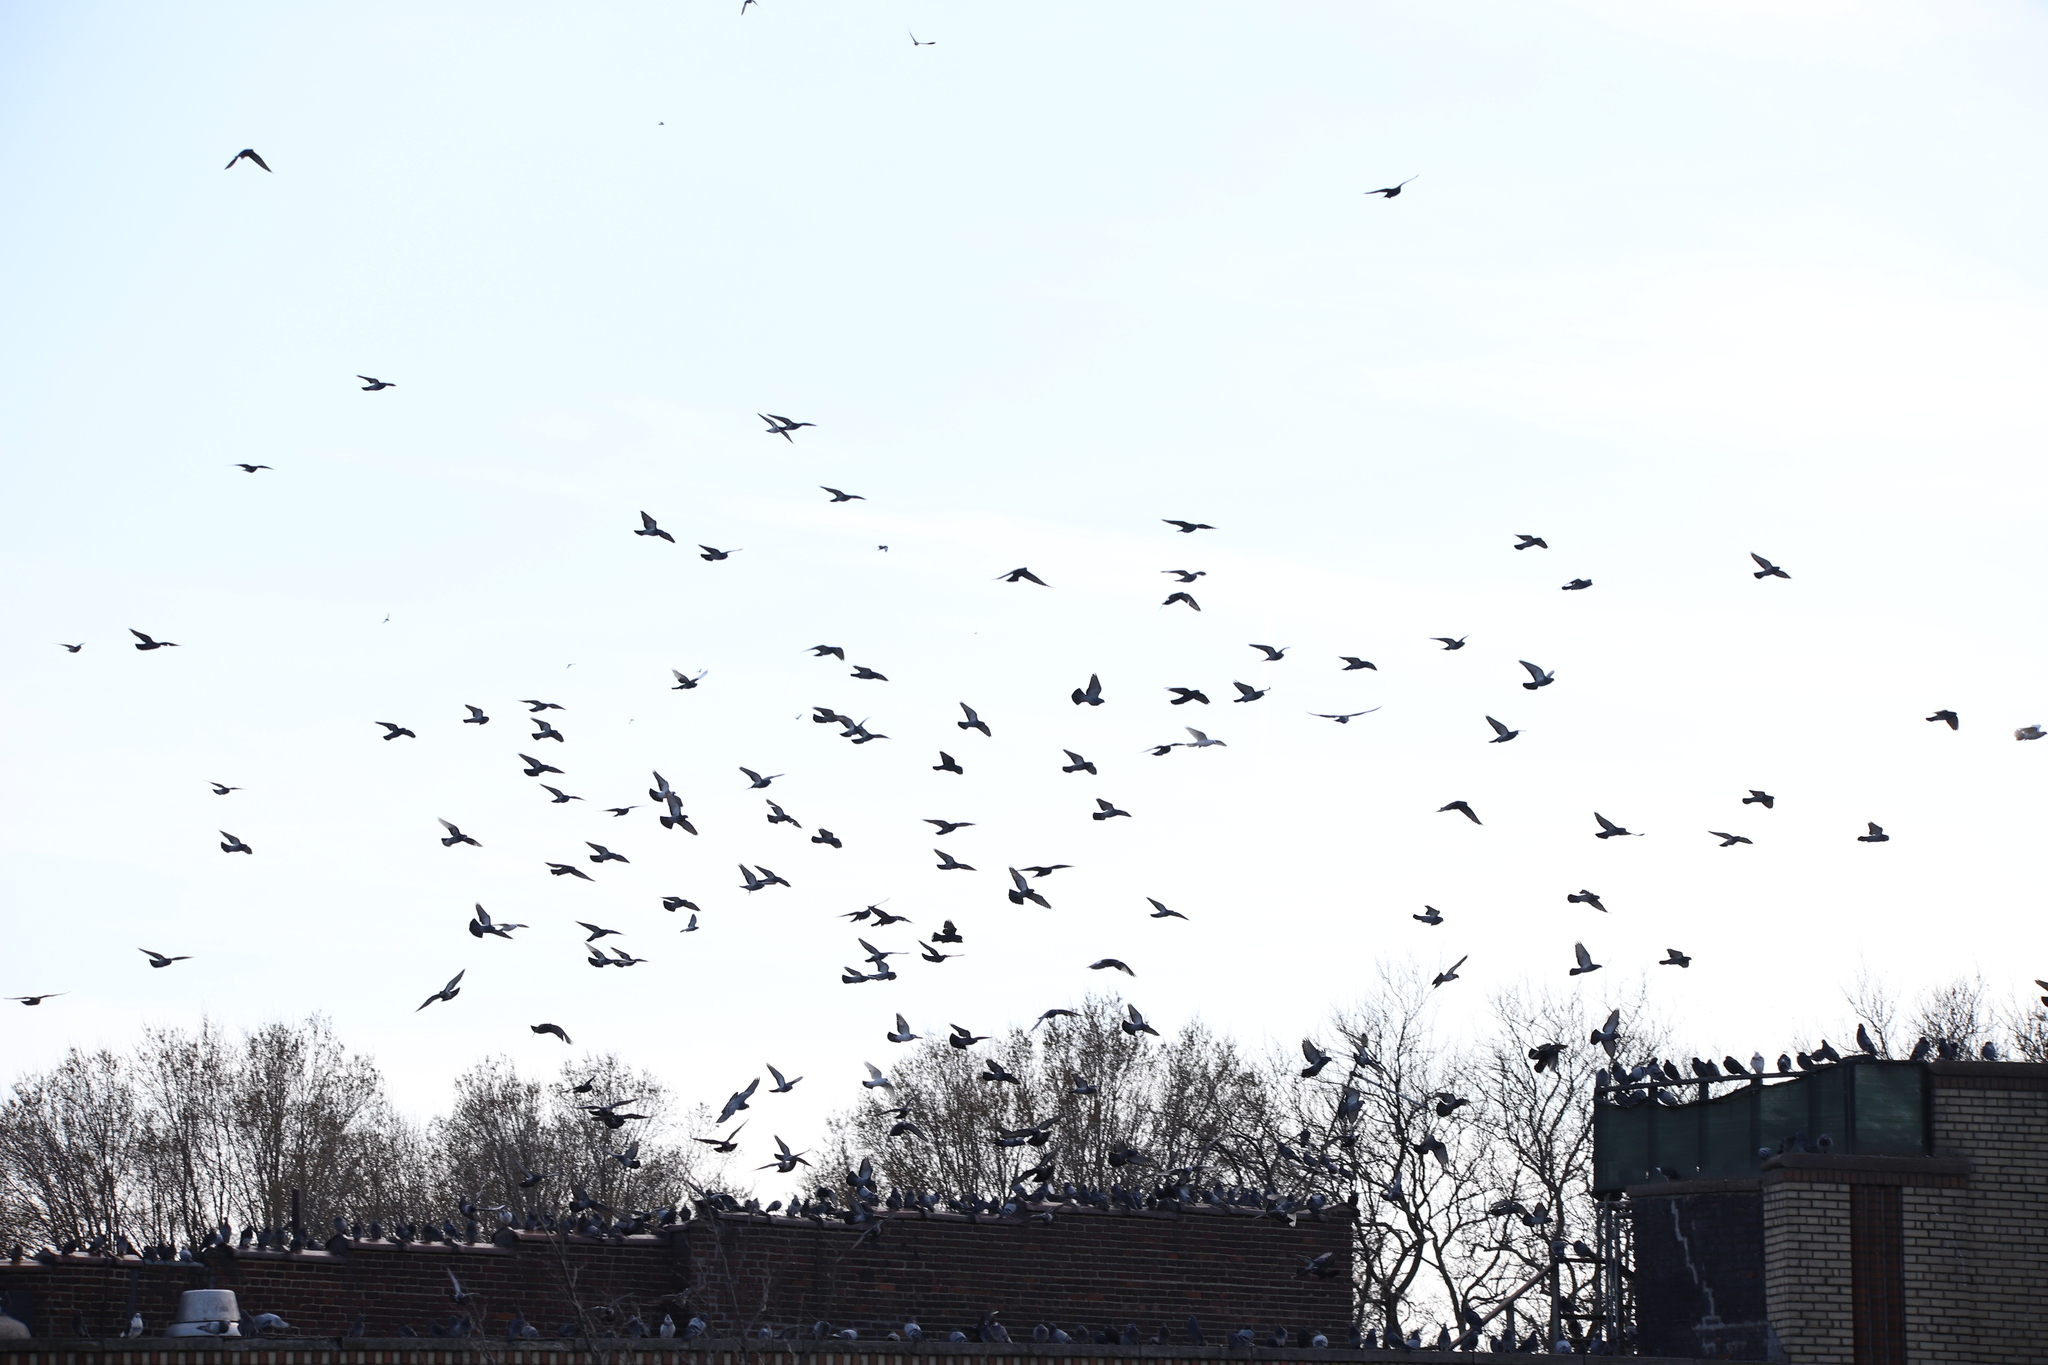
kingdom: Animalia
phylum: Chordata
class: Aves
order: Columbiformes
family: Columbidae
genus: Columba
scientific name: Columba livia
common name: Rock pigeon
